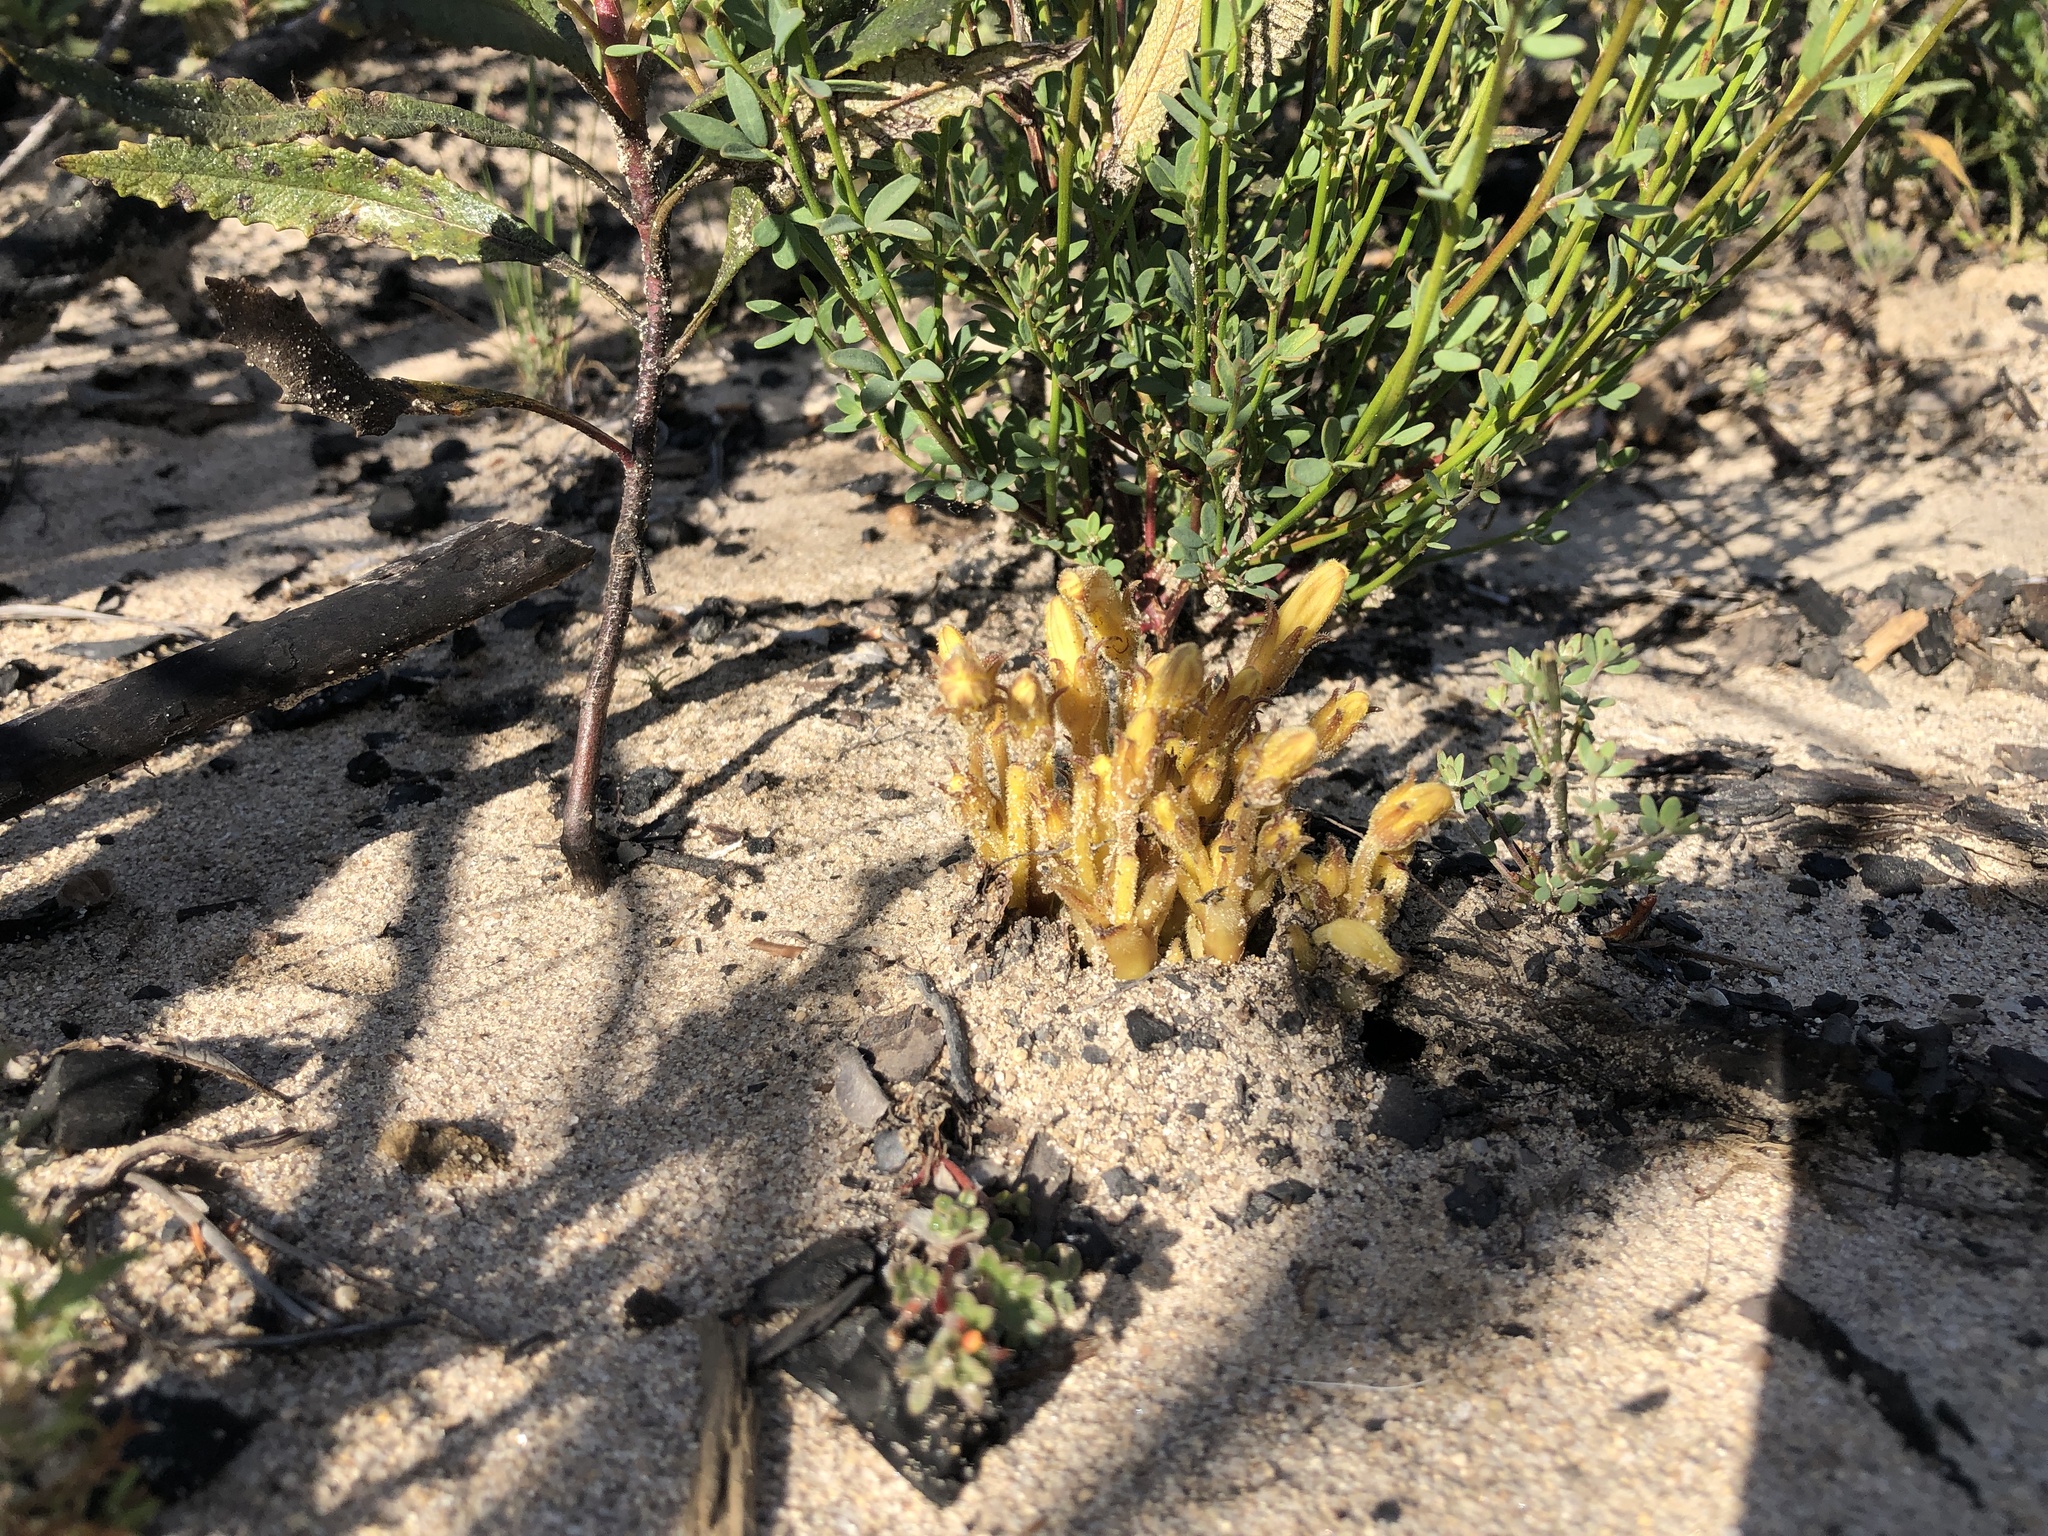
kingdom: Plantae
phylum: Tracheophyta
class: Magnoliopsida
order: Lamiales
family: Orobanchaceae
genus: Aphyllon
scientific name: Aphyllon franciscanum
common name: San francisco broomrape
